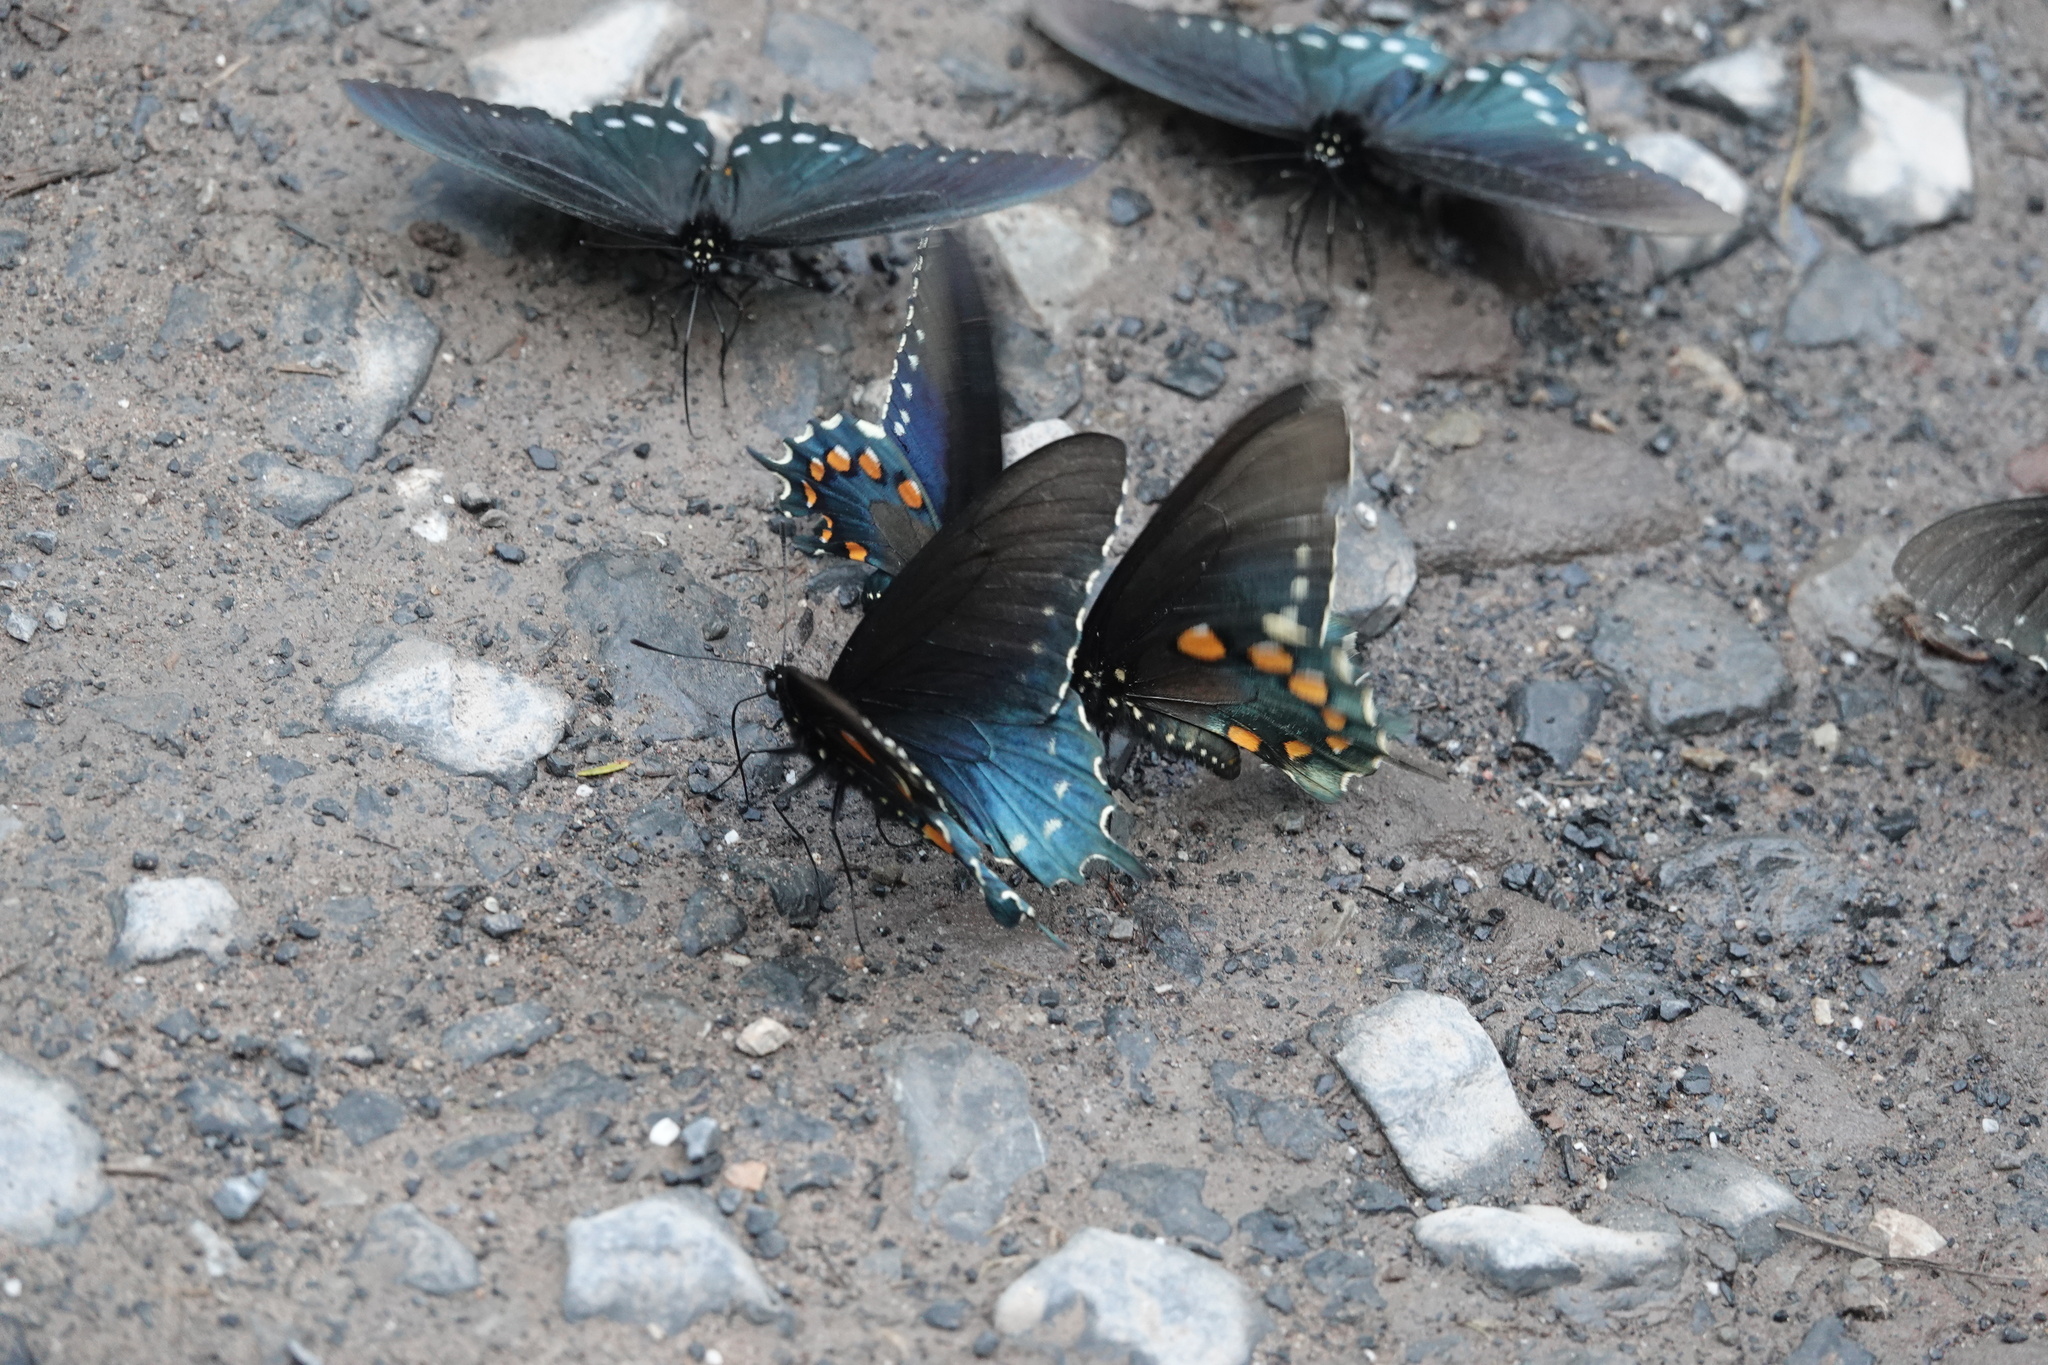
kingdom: Animalia
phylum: Arthropoda
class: Insecta
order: Lepidoptera
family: Papilionidae
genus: Battus
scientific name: Battus philenor
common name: Pipevine swallowtail
